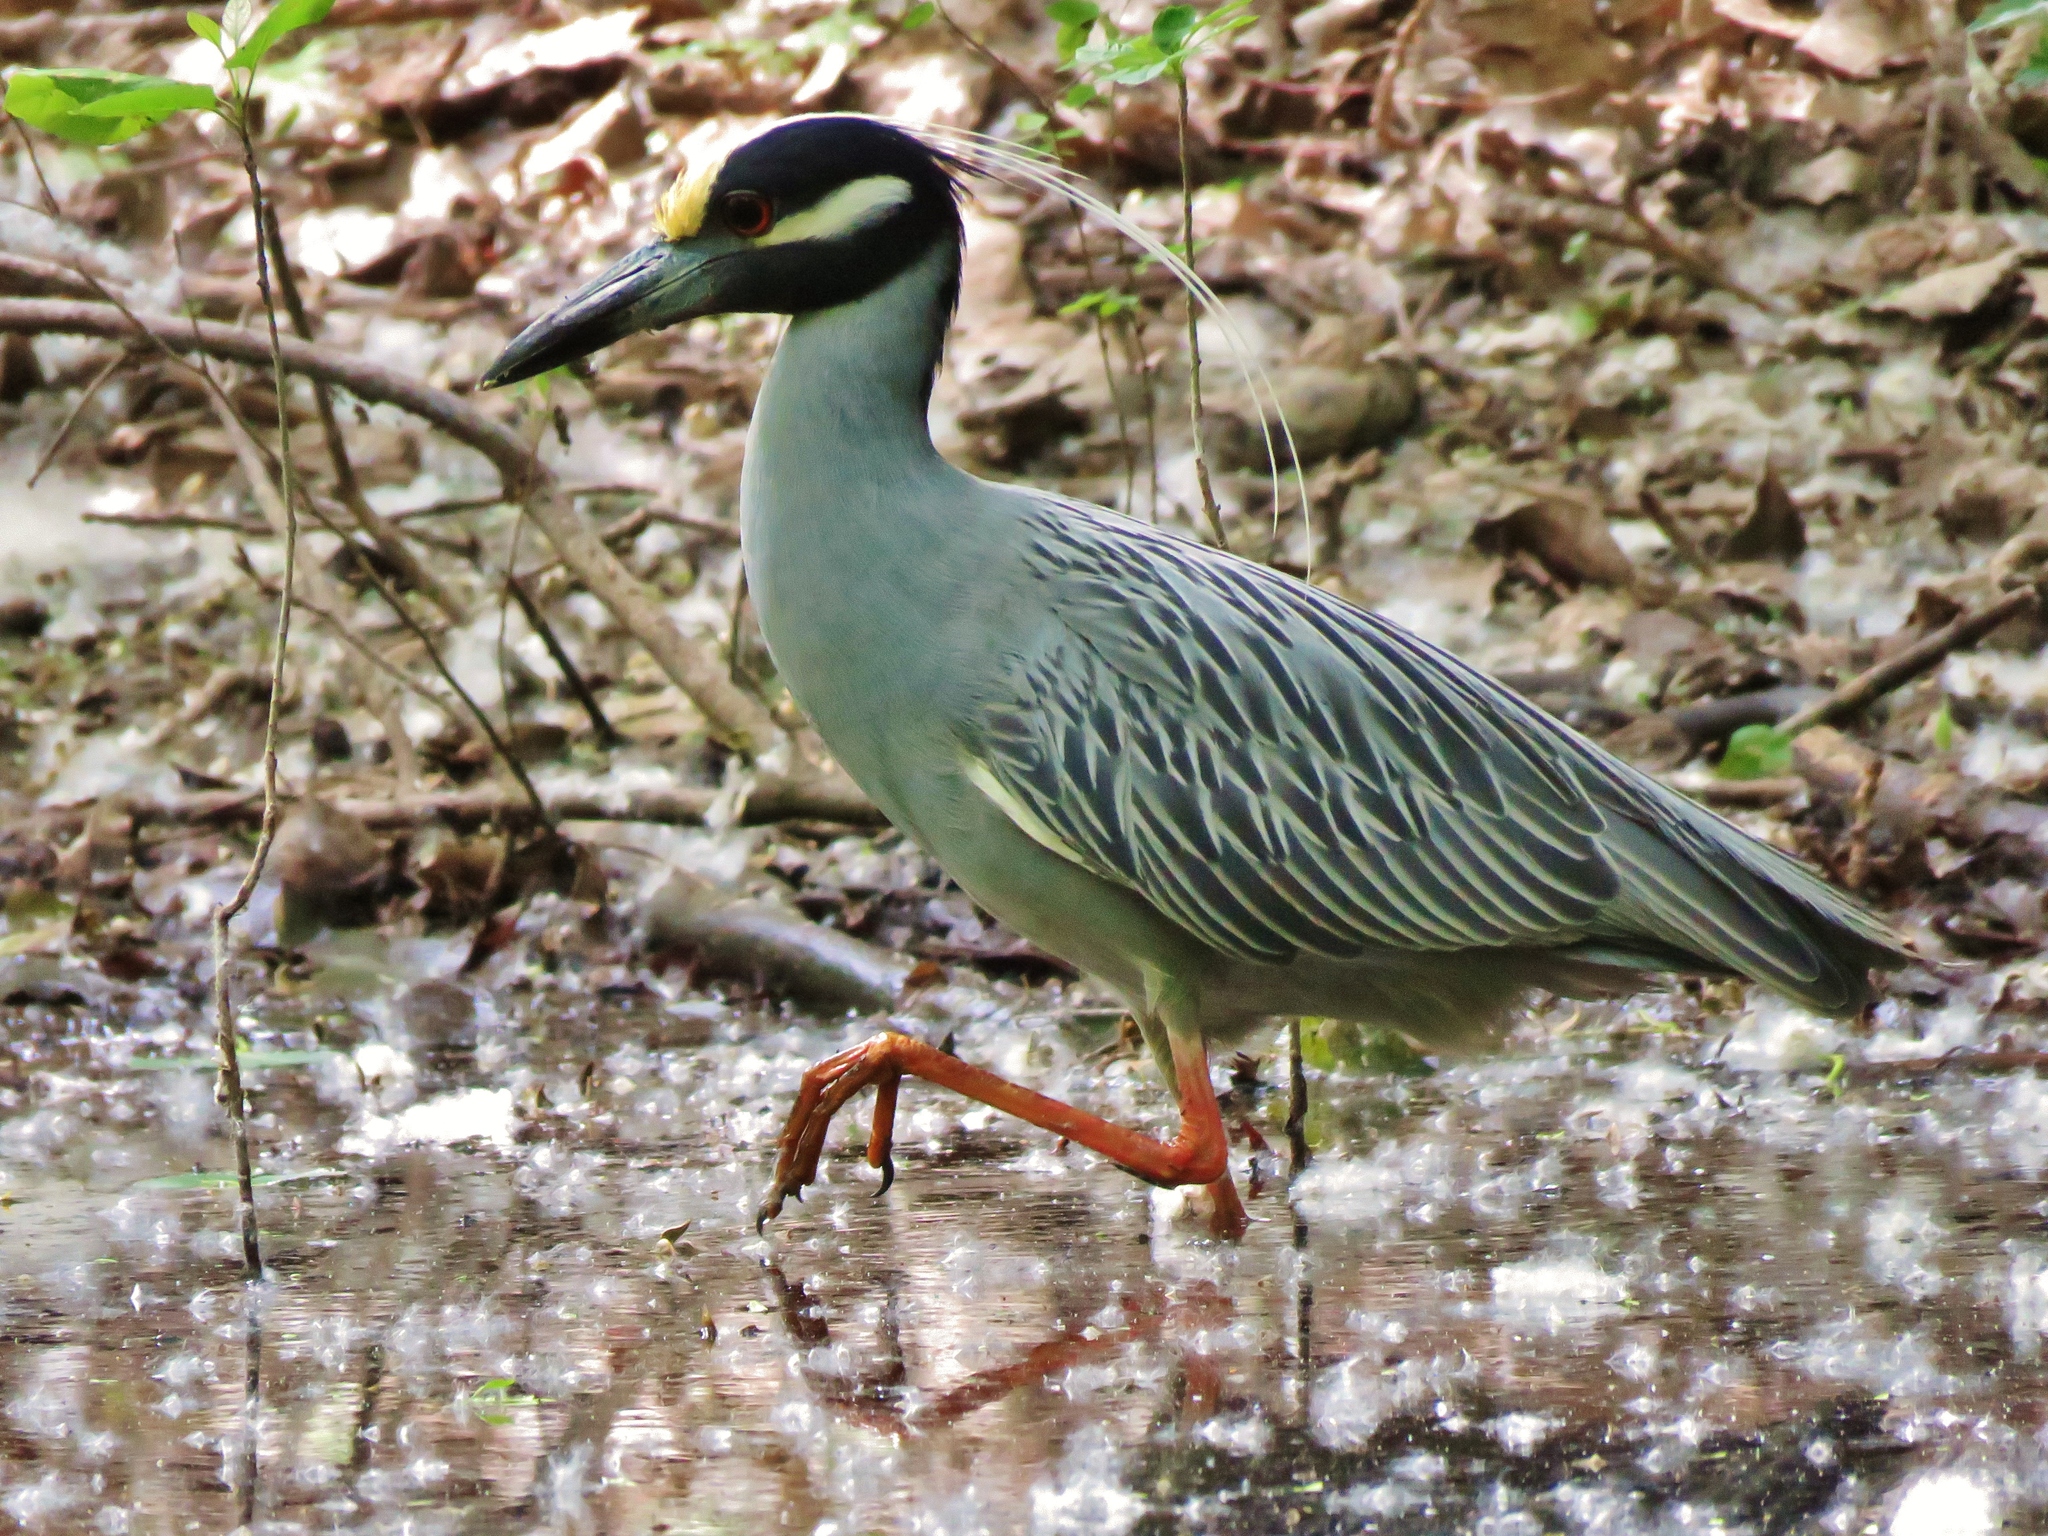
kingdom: Animalia
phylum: Chordata
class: Aves
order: Pelecaniformes
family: Ardeidae
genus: Nyctanassa
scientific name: Nyctanassa violacea
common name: Yellow-crowned night heron
